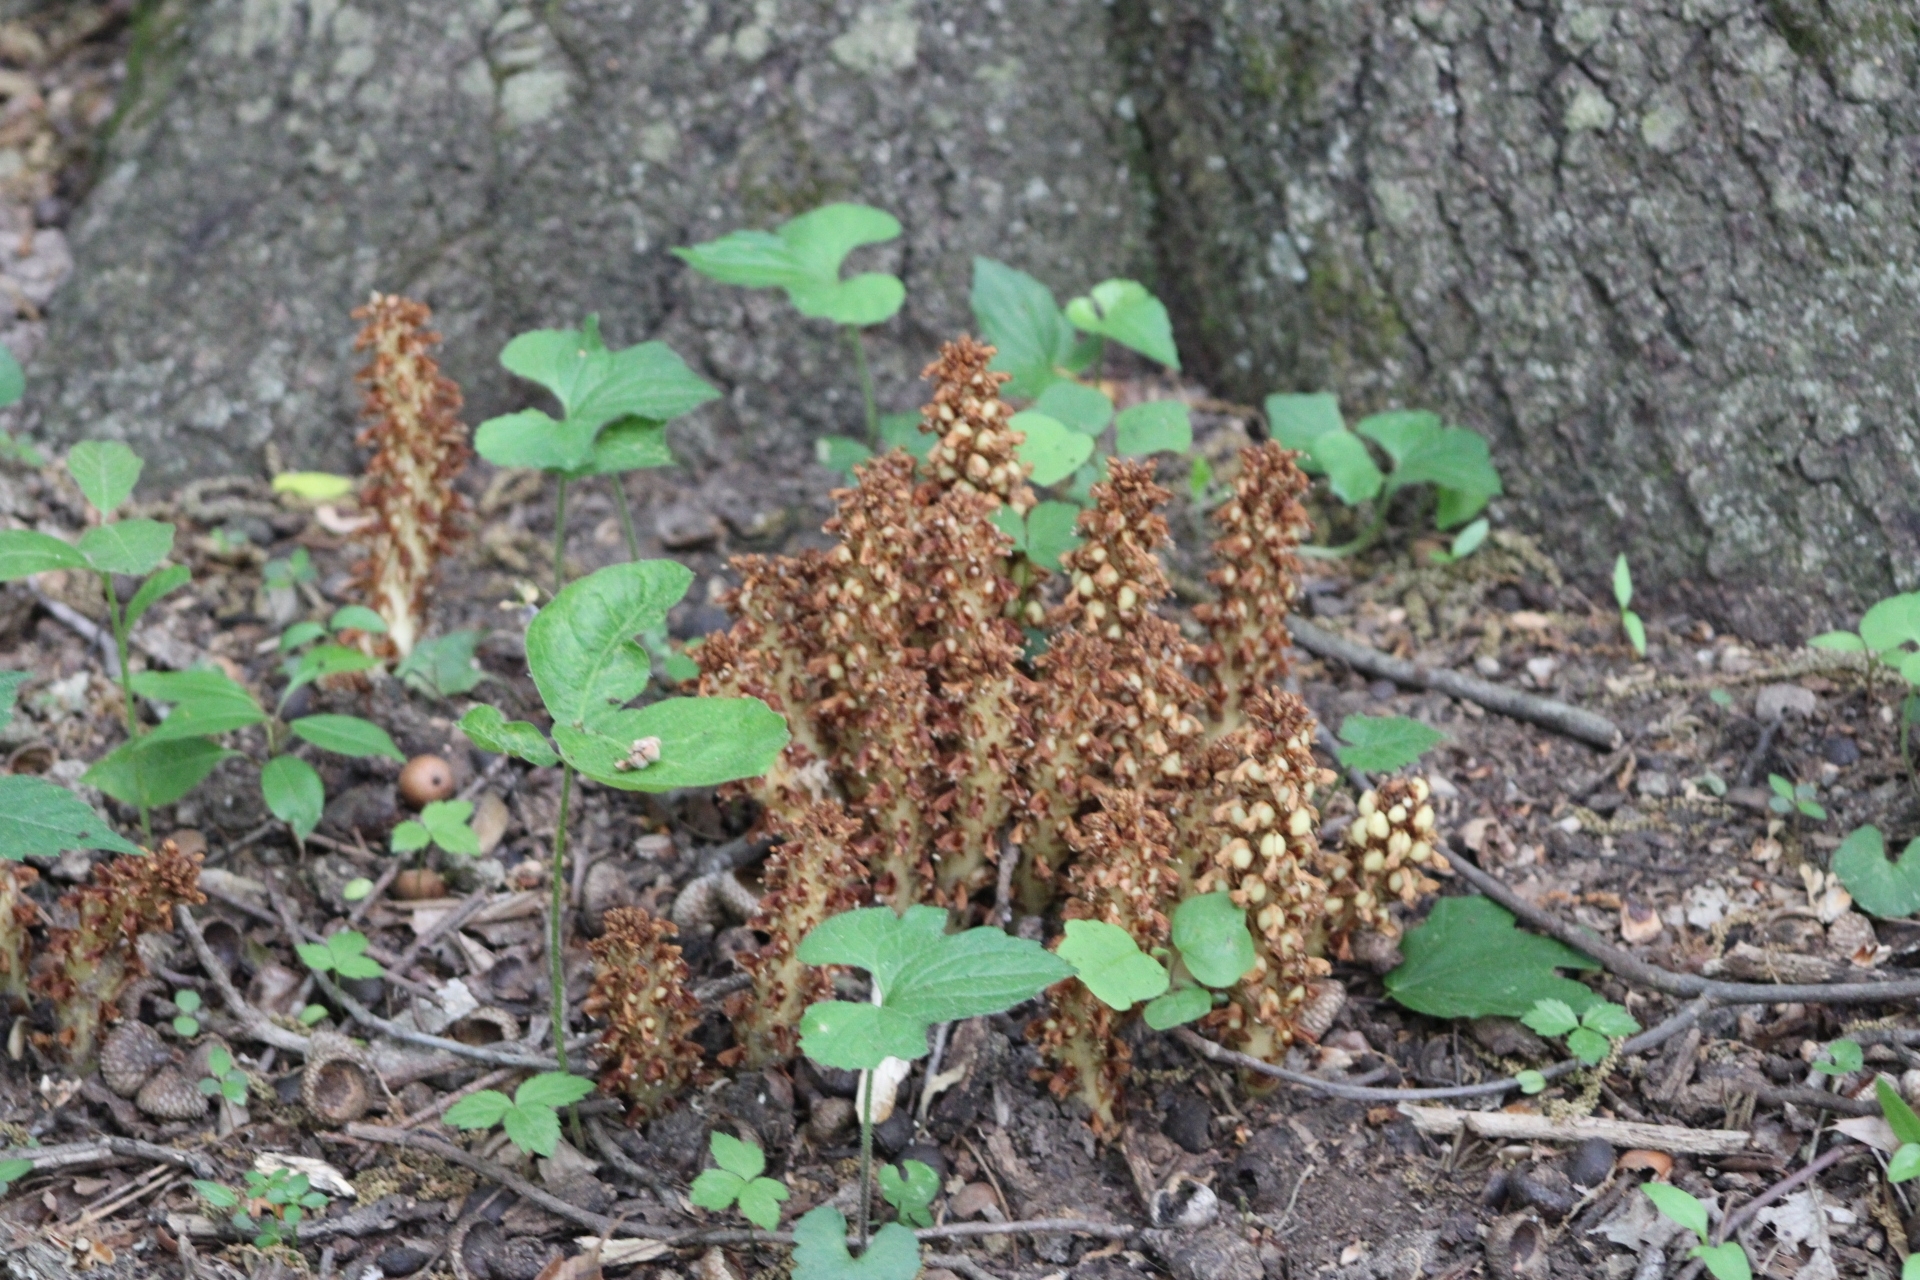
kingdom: Plantae
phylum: Tracheophyta
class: Magnoliopsida
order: Lamiales
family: Orobanchaceae
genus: Conopholis
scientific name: Conopholis americana
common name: American cancer-root
